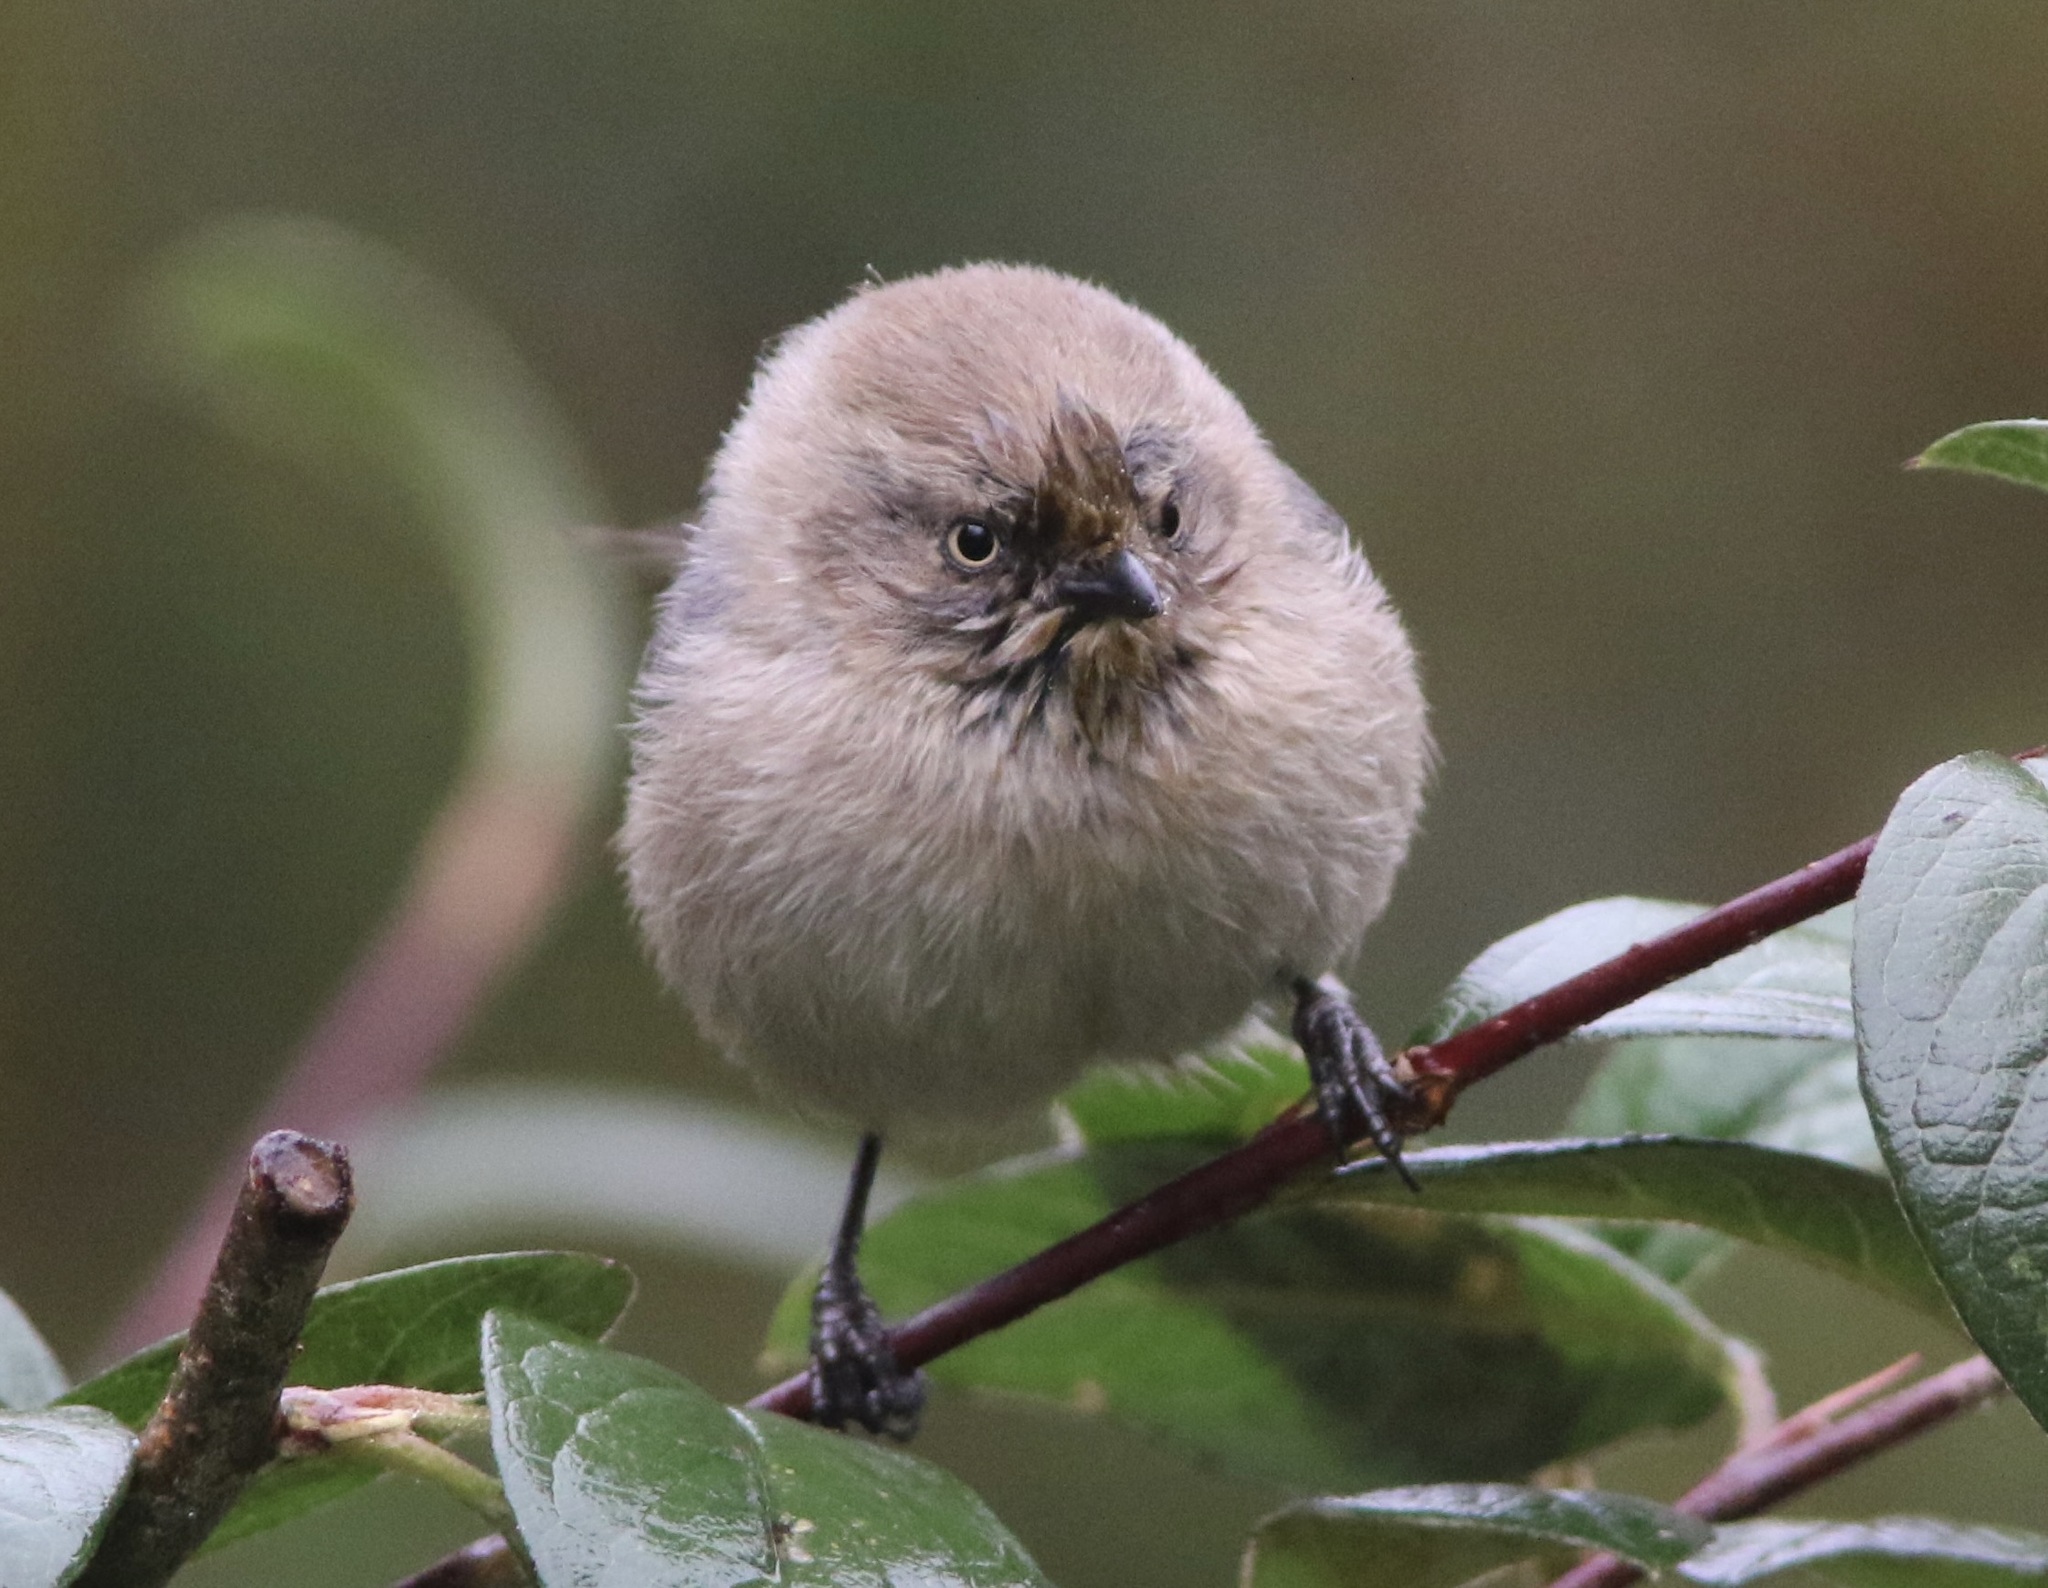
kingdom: Animalia
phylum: Chordata
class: Aves
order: Passeriformes
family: Aegithalidae
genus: Psaltriparus
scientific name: Psaltriparus minimus
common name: American bushtit
